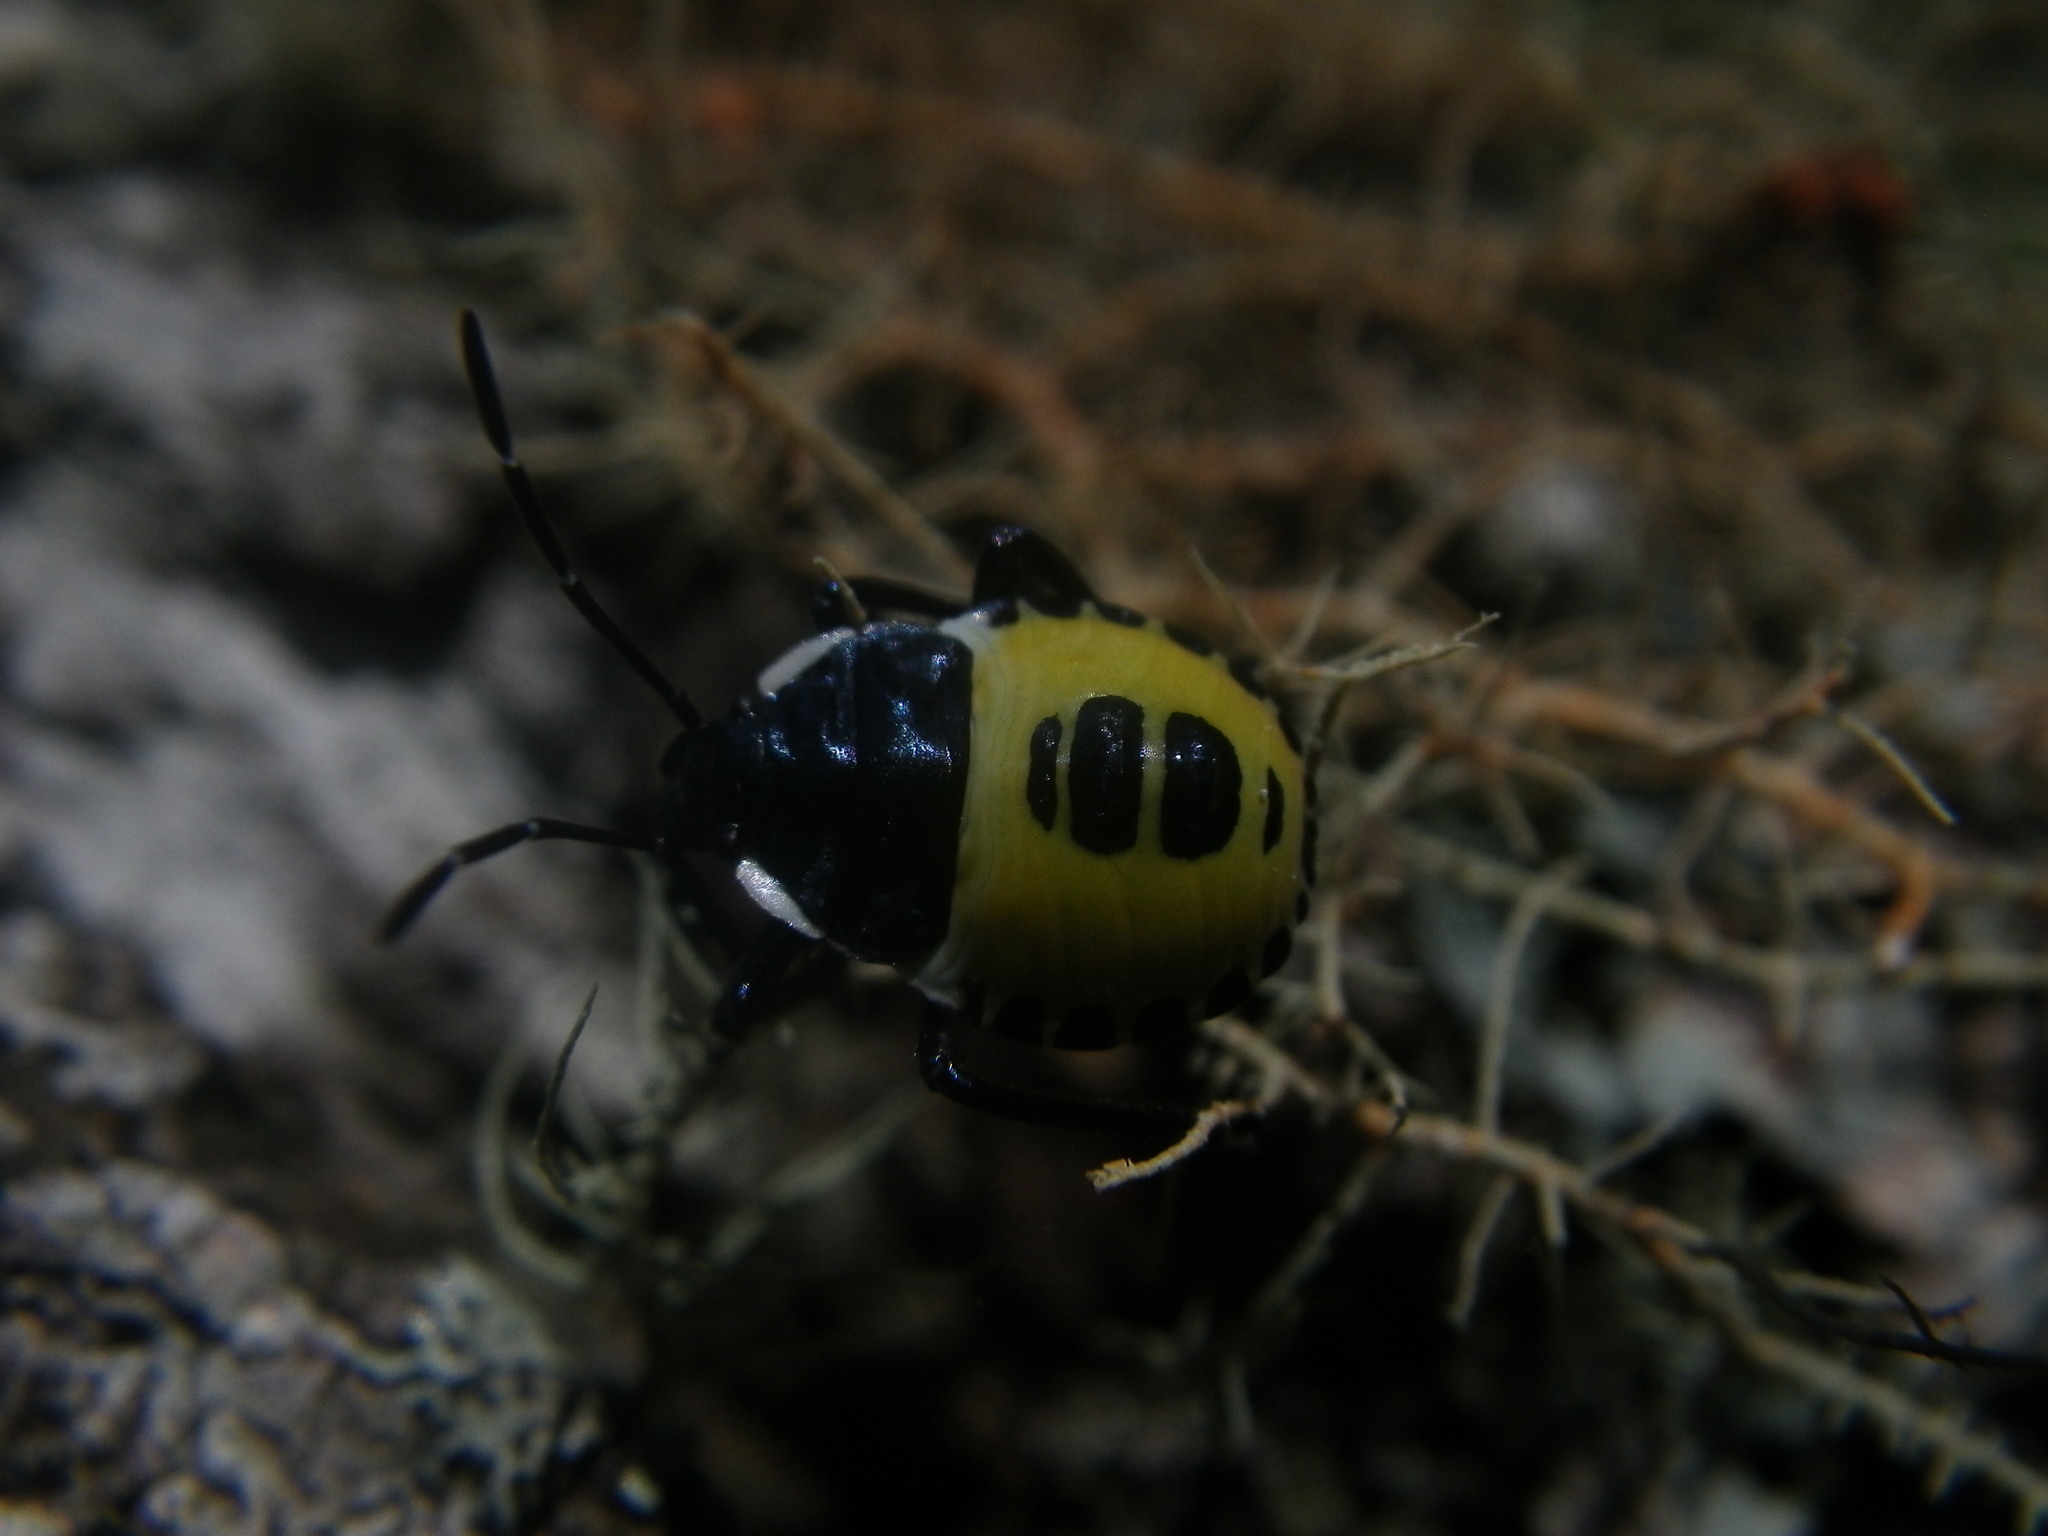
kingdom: Animalia
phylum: Arthropoda
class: Insecta
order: Hemiptera
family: Pentatomidae
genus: Commius
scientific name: Commius
